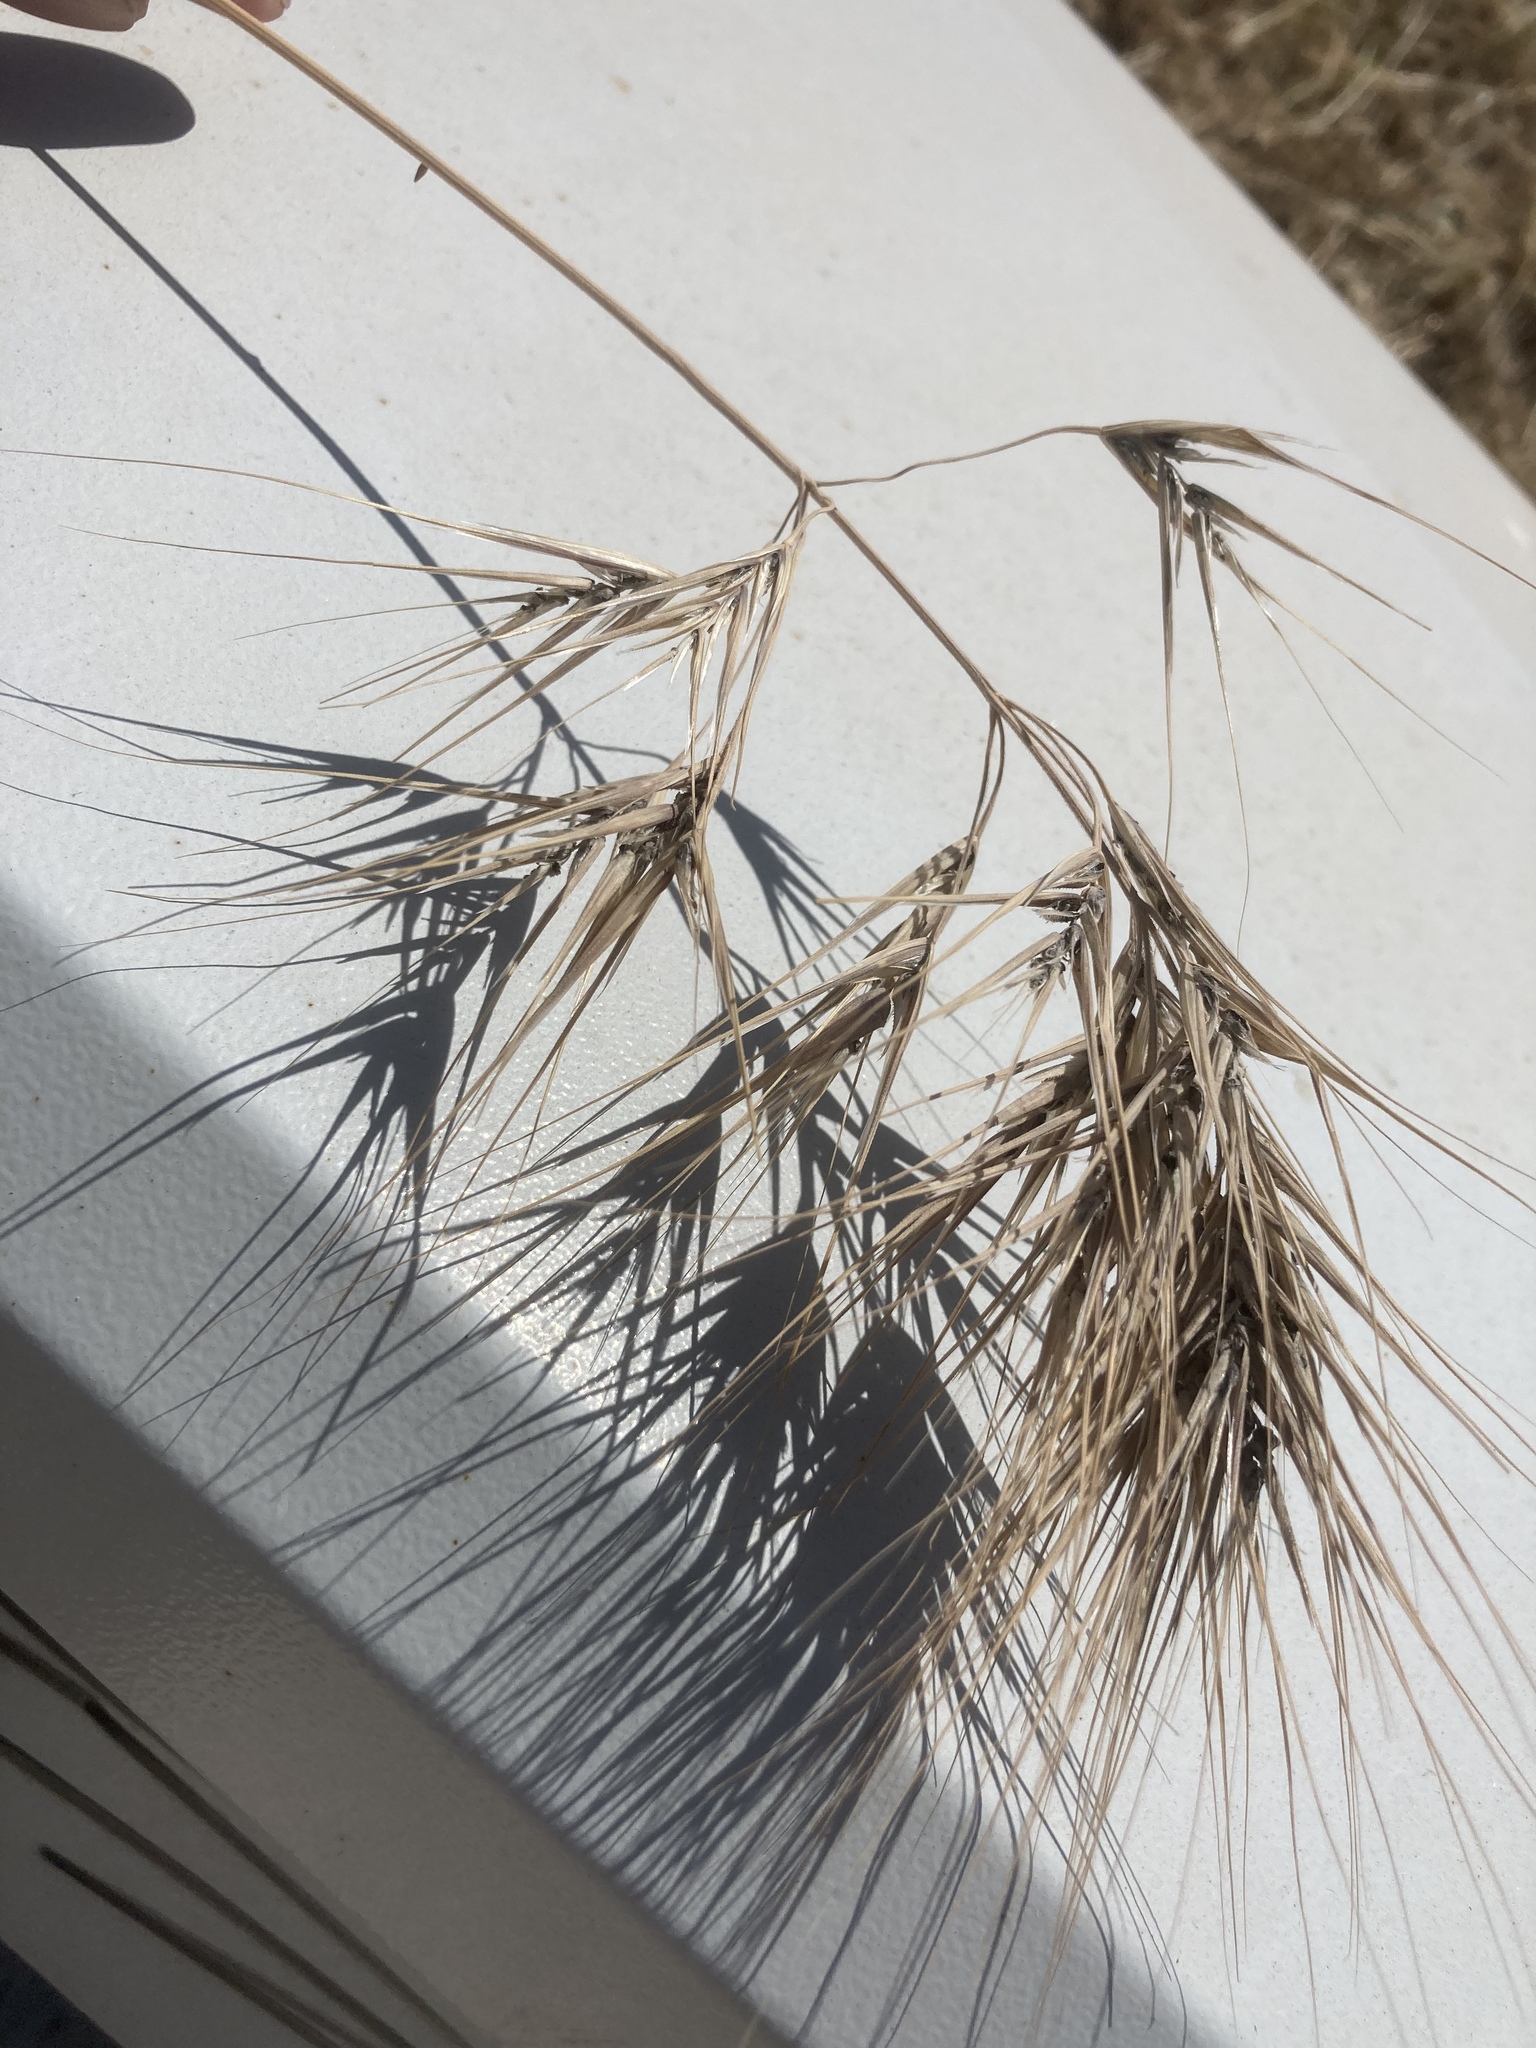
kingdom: Plantae
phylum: Tracheophyta
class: Liliopsida
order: Poales
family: Poaceae
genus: Bromus
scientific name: Bromus rigidus
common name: Ripgut brome
